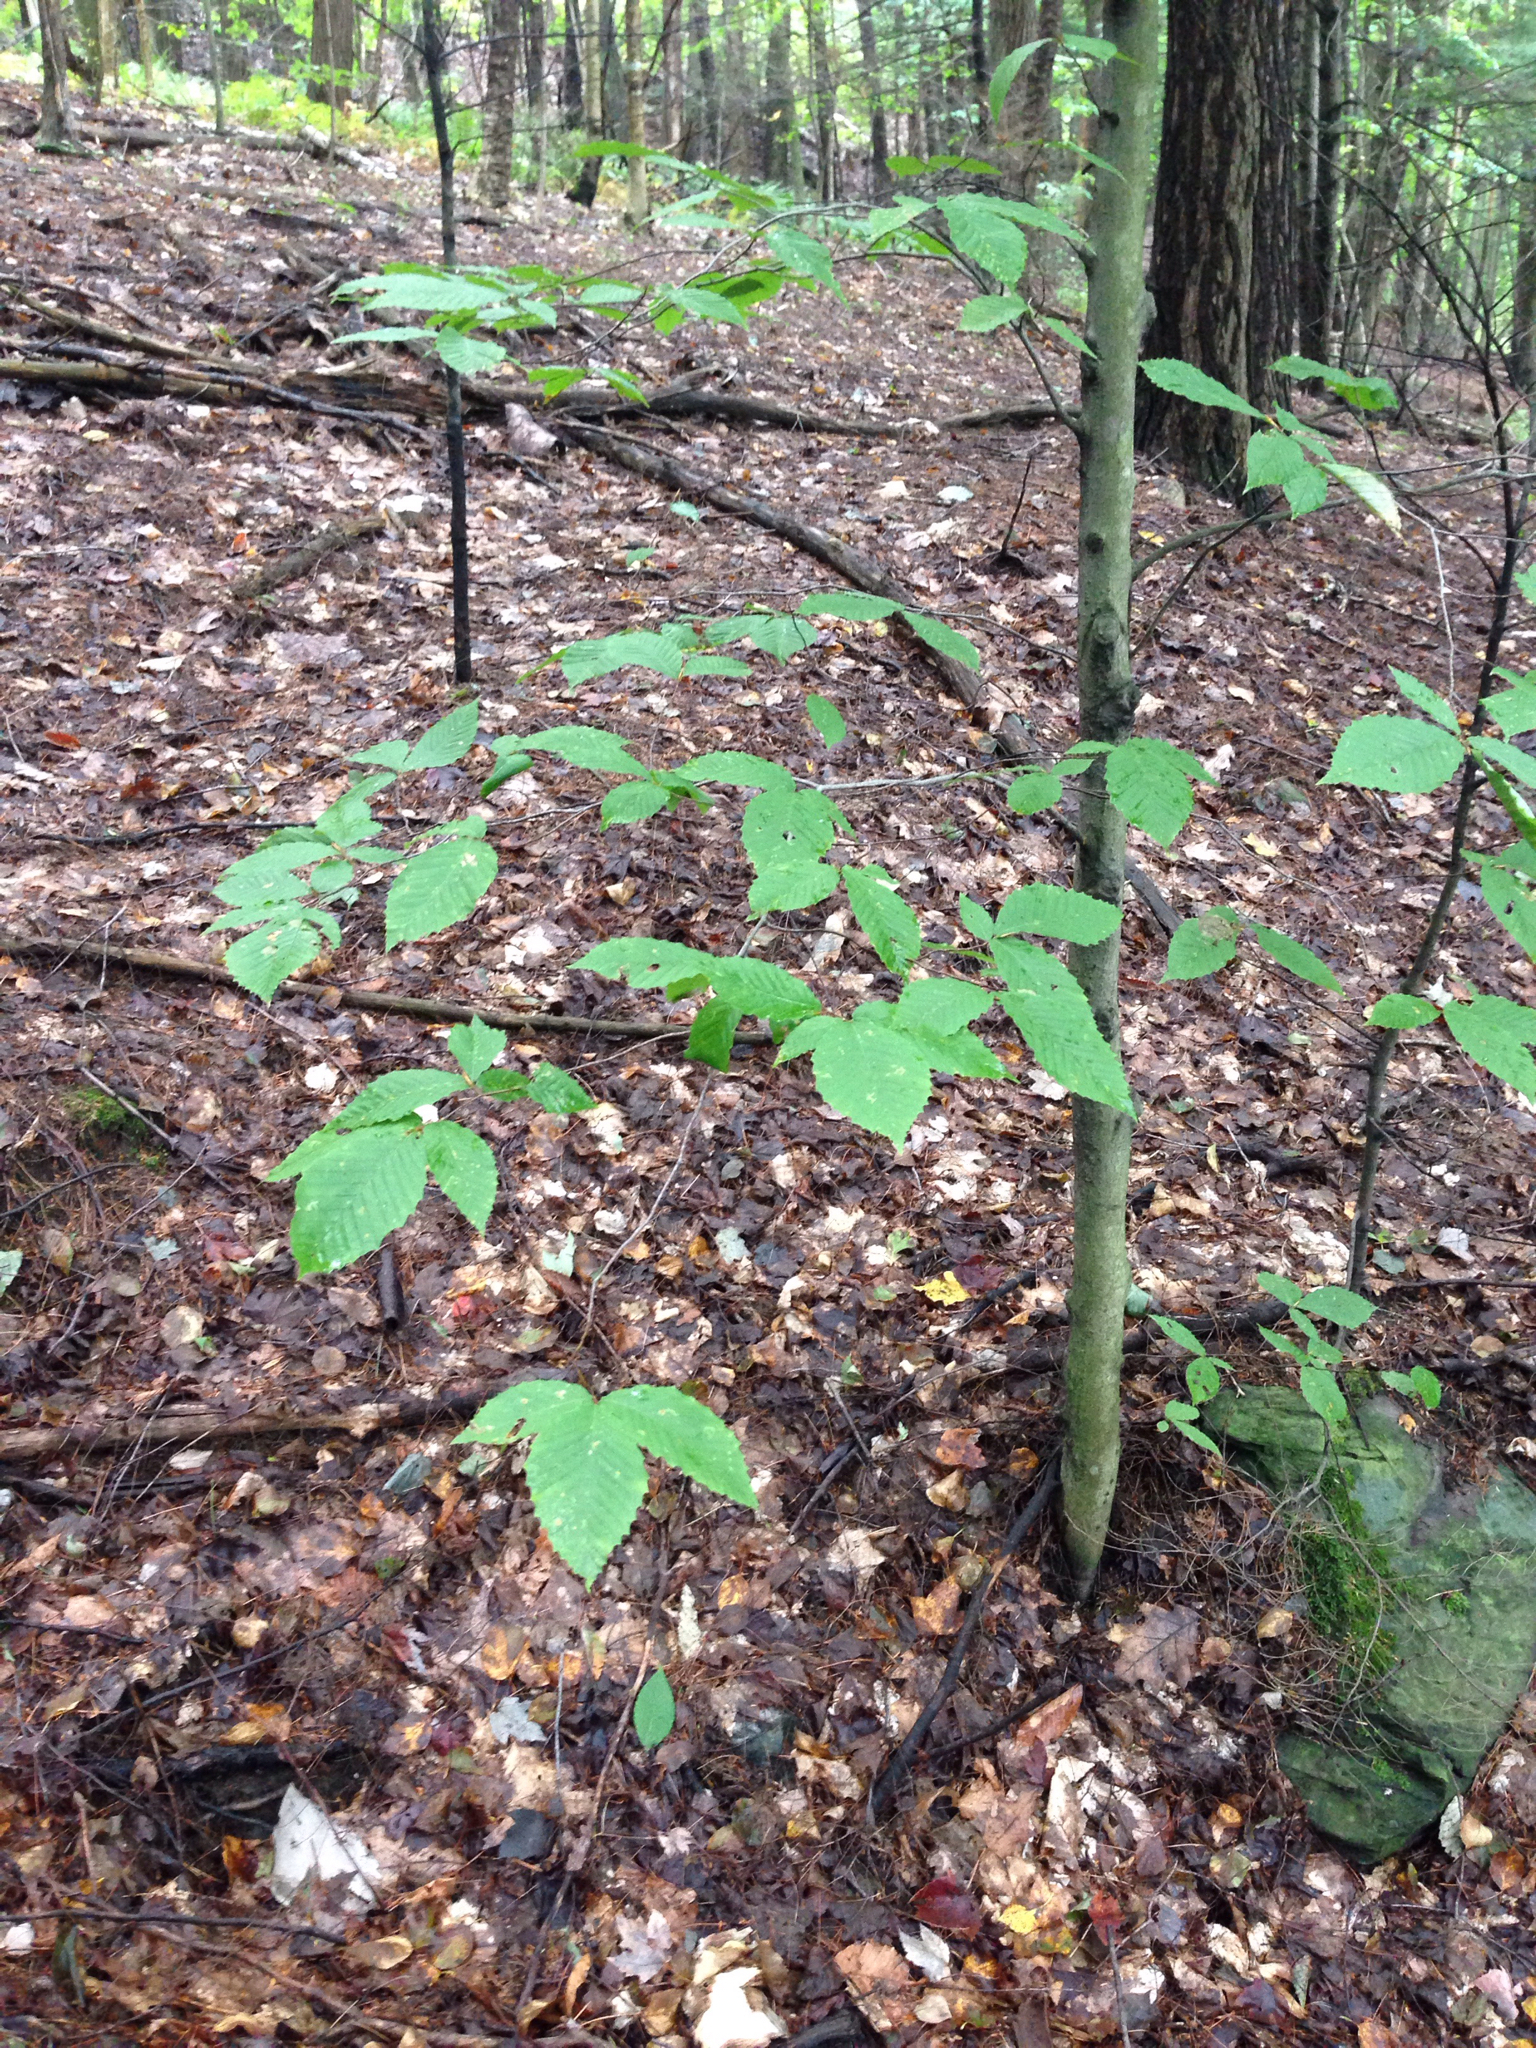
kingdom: Plantae
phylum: Tracheophyta
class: Magnoliopsida
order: Fagales
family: Fagaceae
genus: Fagus
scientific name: Fagus grandifolia
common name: American beech
